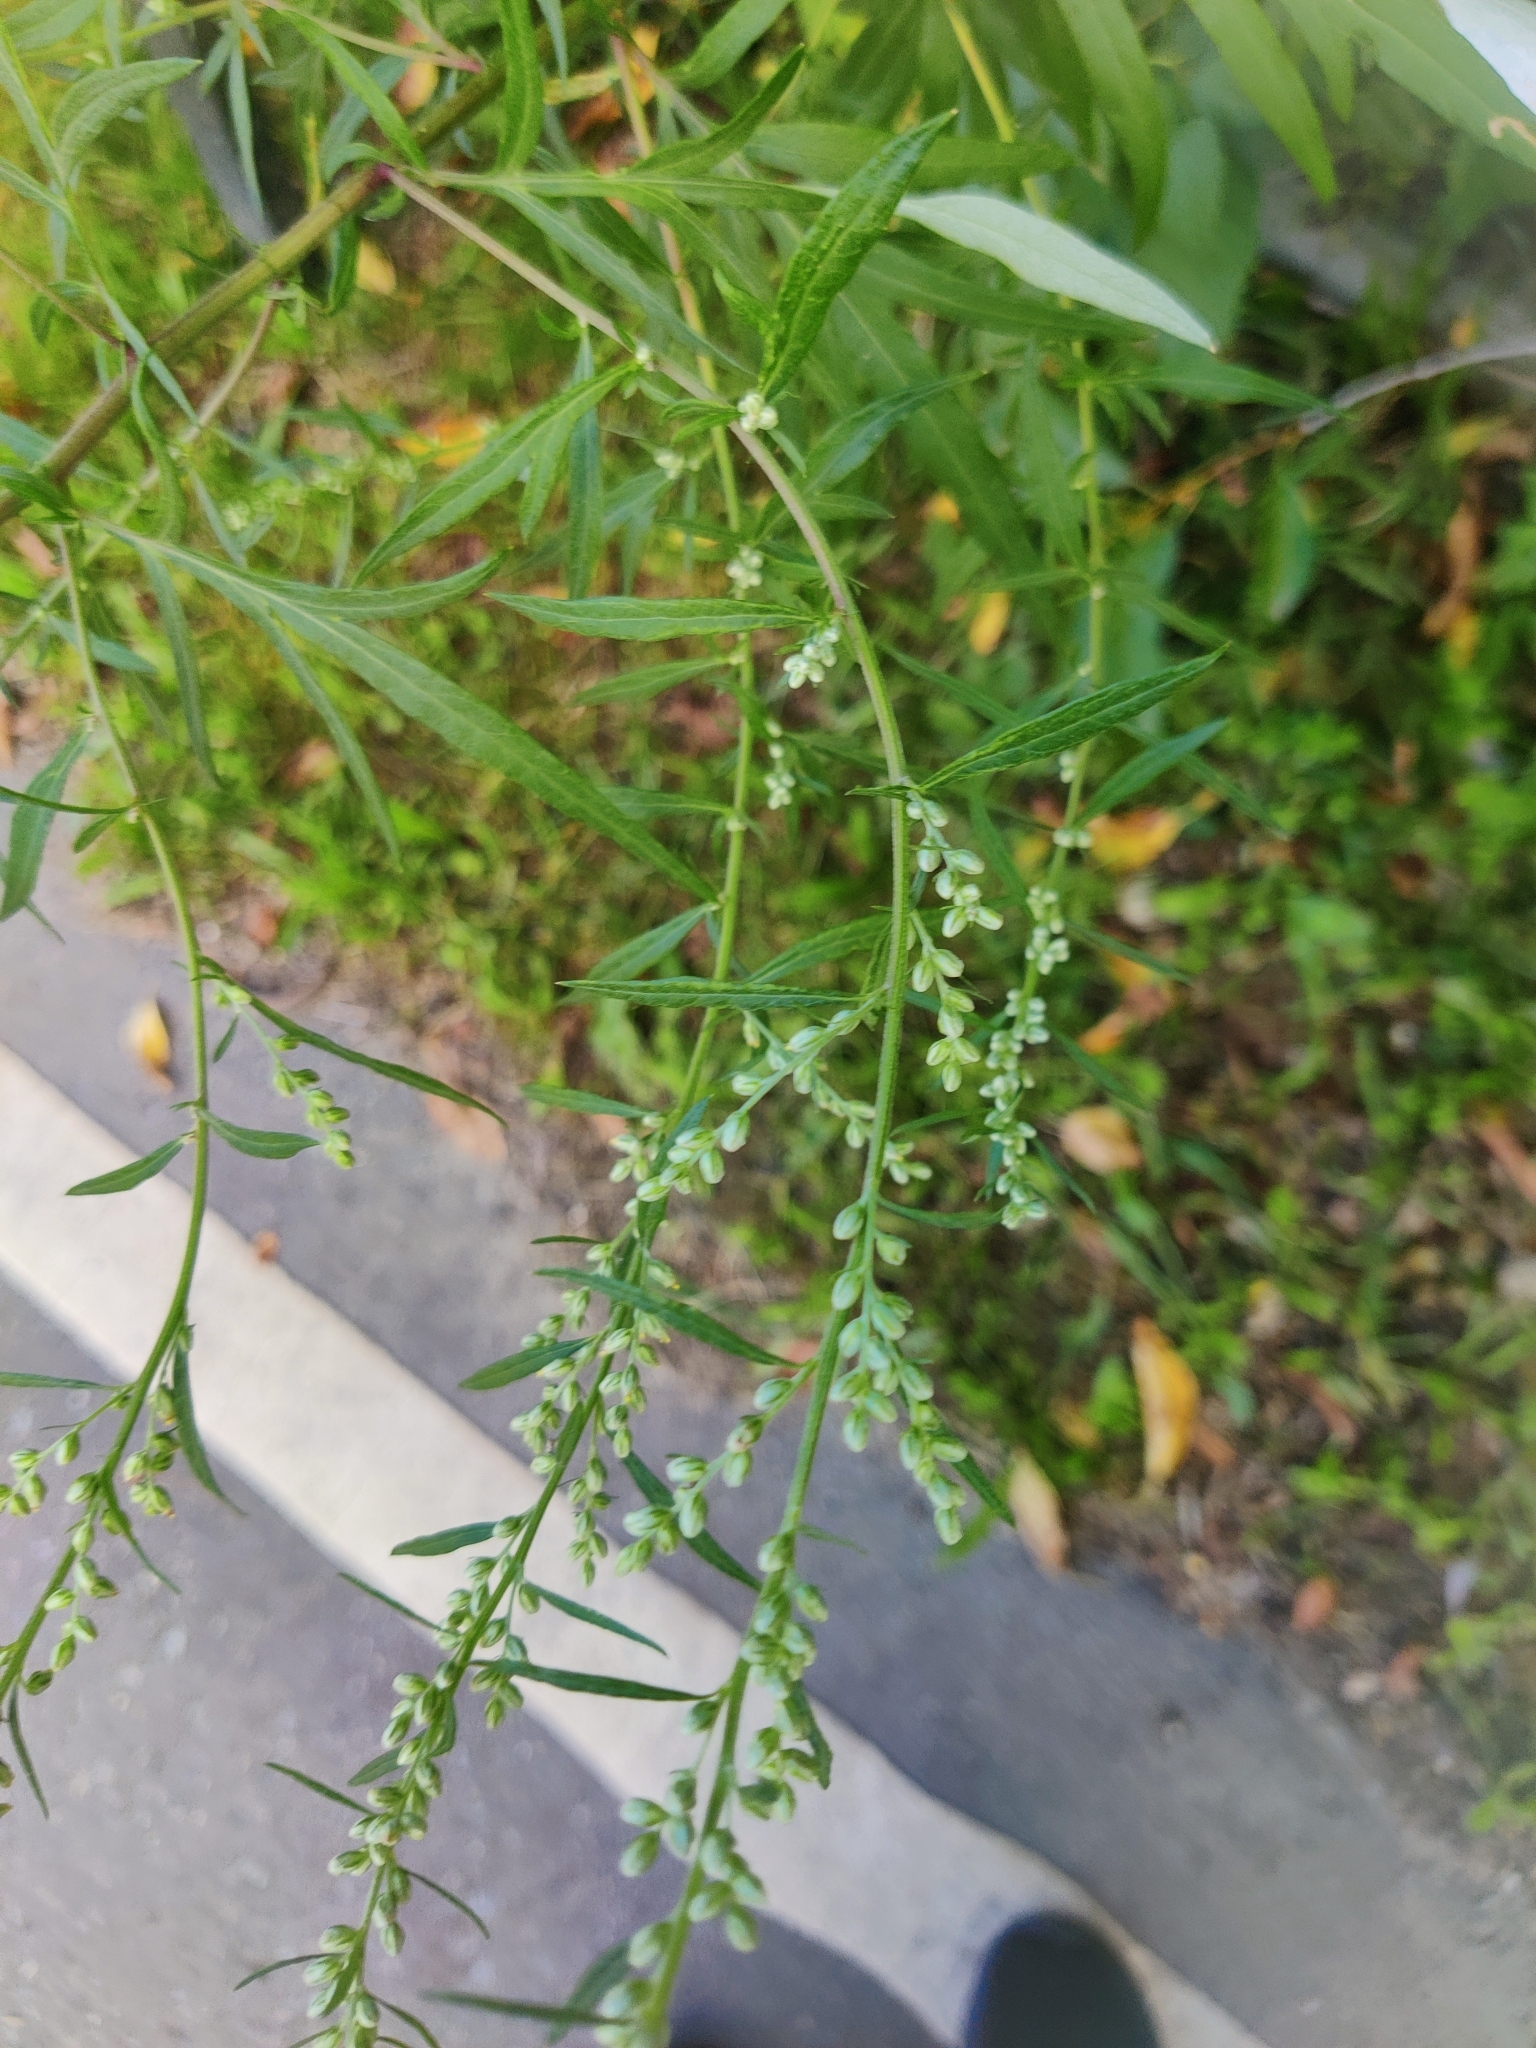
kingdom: Plantae
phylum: Tracheophyta
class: Magnoliopsida
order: Asterales
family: Asteraceae
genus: Artemisia
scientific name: Artemisia vulgaris
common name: Mugwort
